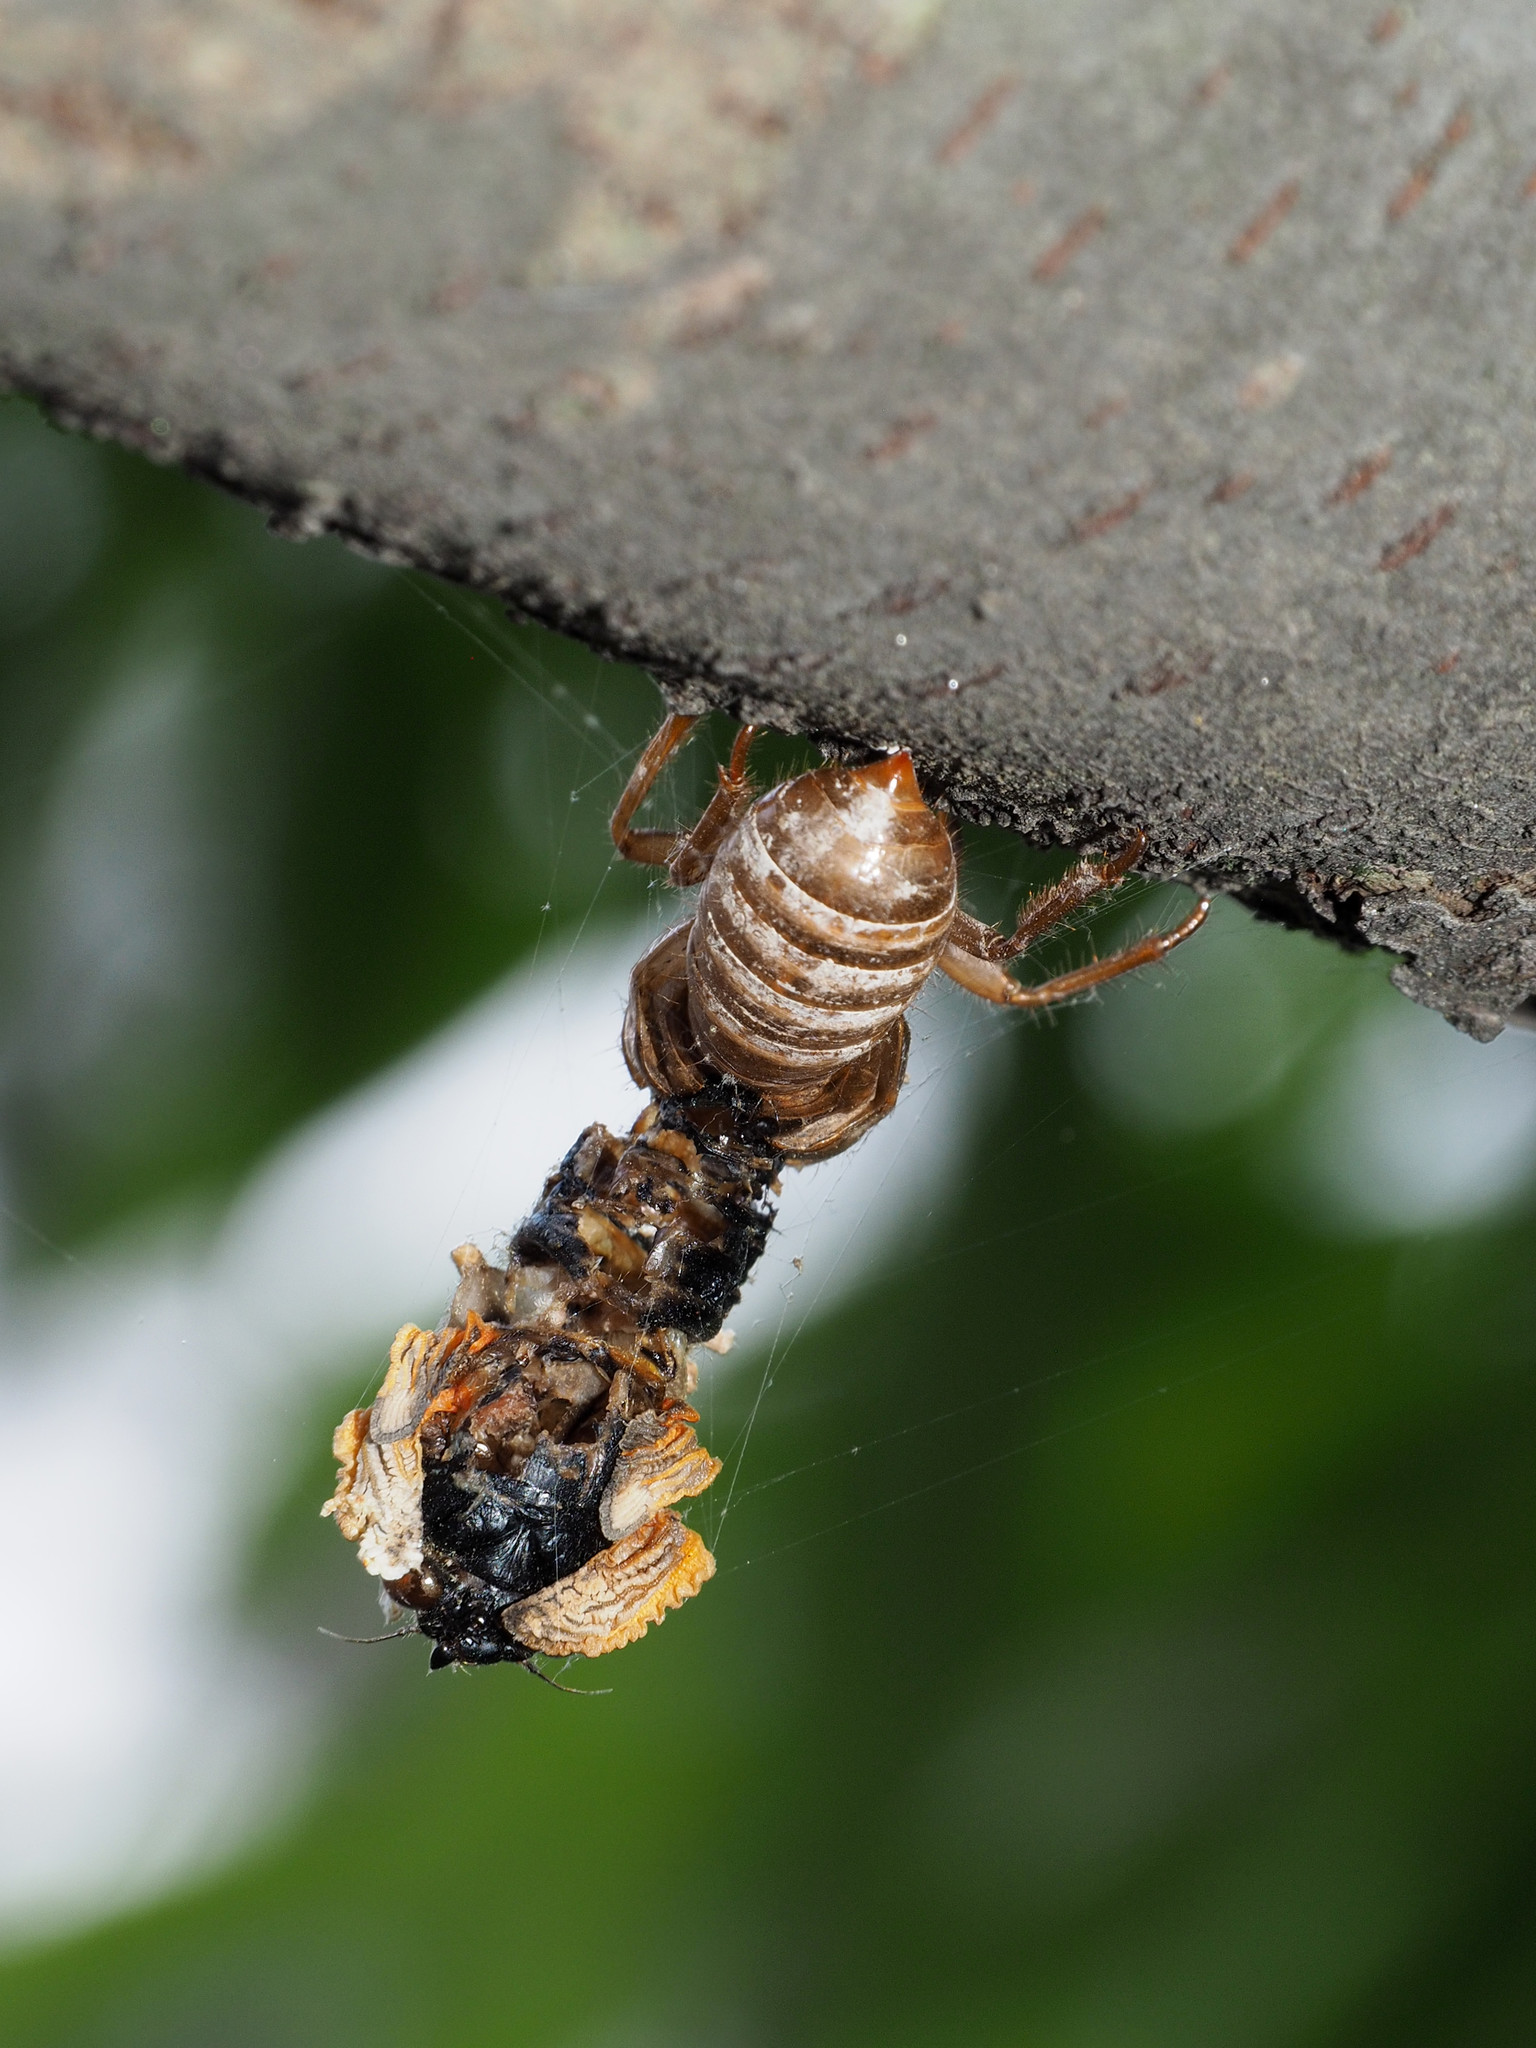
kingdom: Animalia
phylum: Arthropoda
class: Insecta
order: Hemiptera
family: Cicadidae
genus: Magicicada
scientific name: Magicicada
